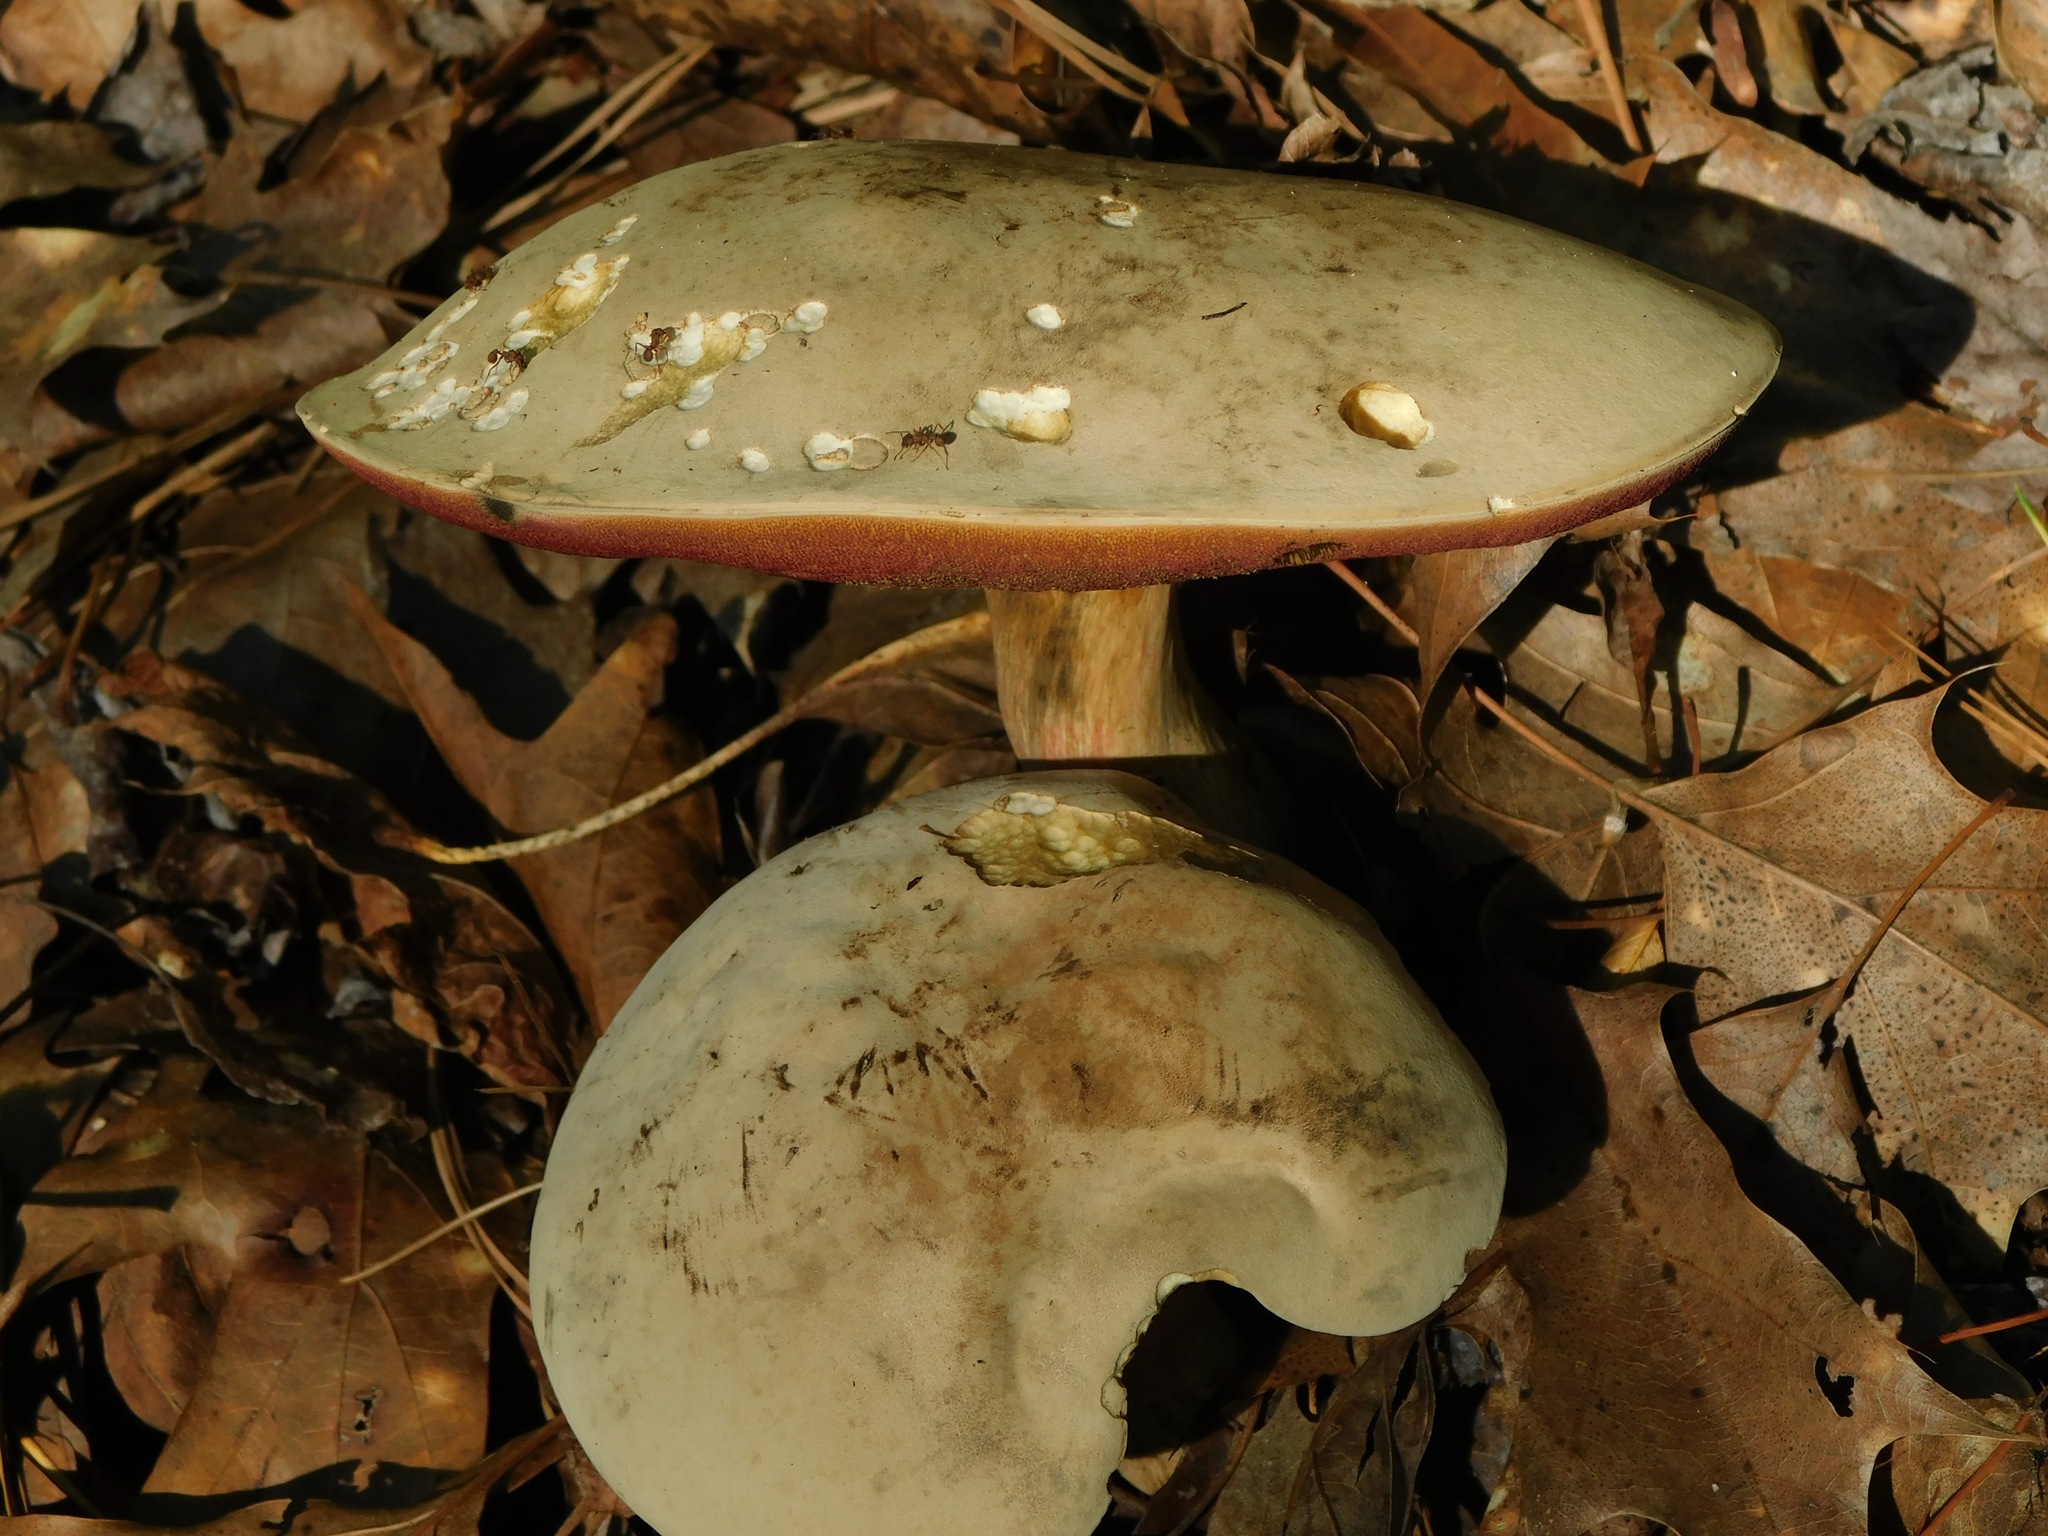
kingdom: Fungi
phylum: Basidiomycota
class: Agaricomycetes
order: Boletales
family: Boletaceae
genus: Caloboletus
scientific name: Caloboletus firmus
